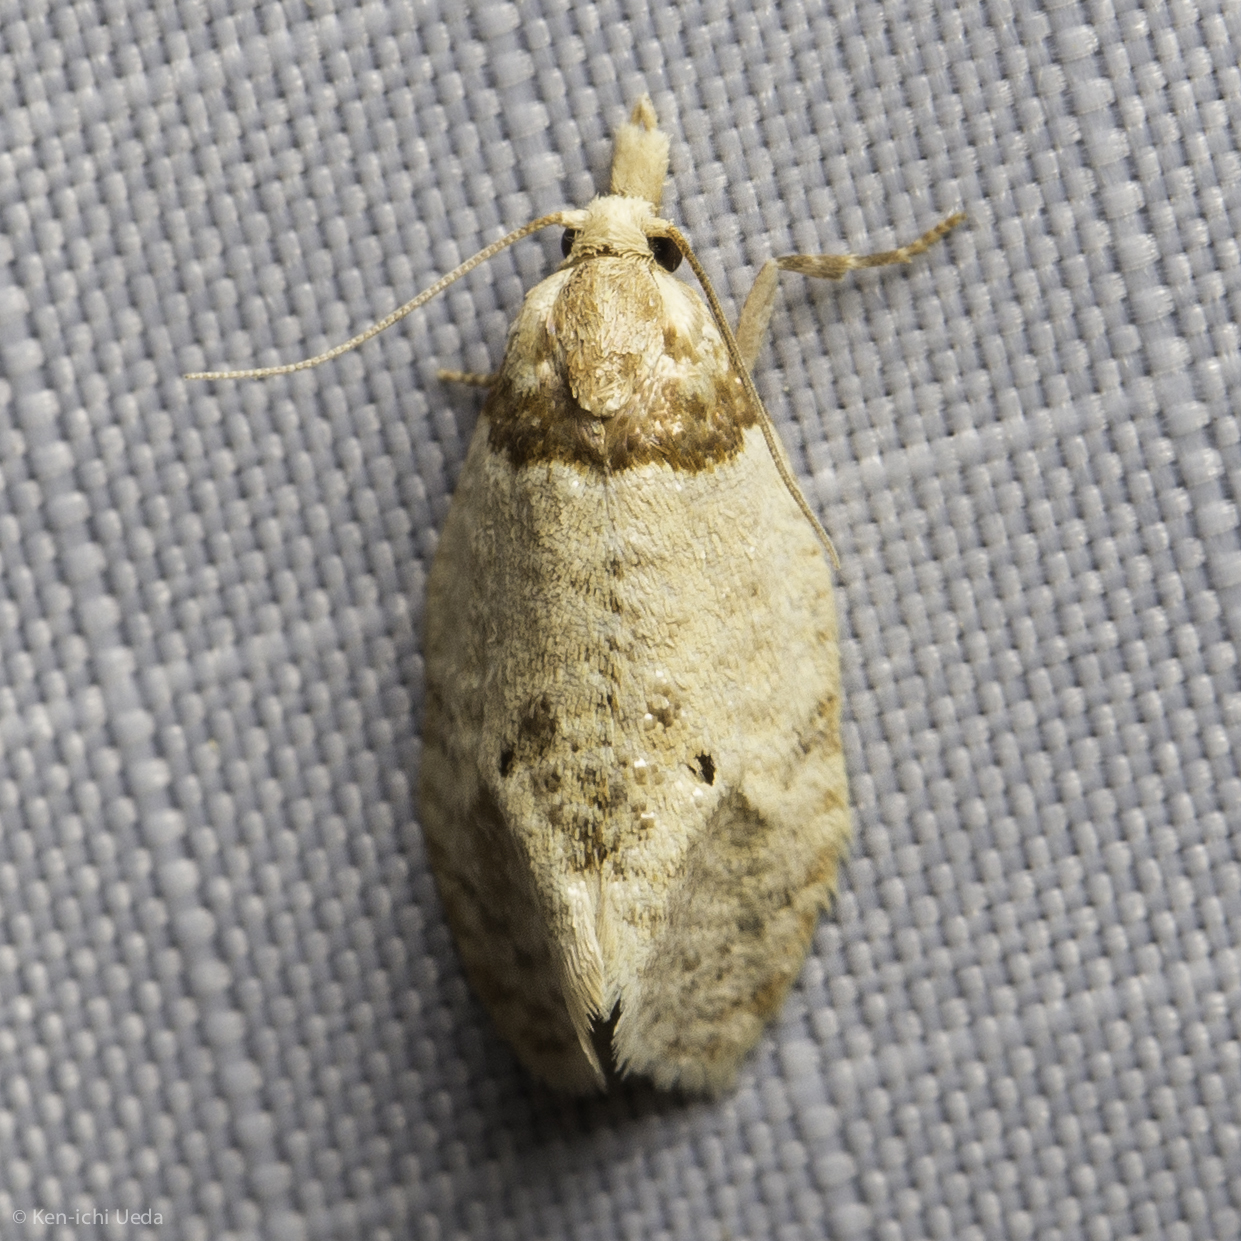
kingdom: Animalia
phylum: Arthropoda
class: Insecta
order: Lepidoptera
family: Tortricidae
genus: Henricus
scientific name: Henricus umbrabasana
